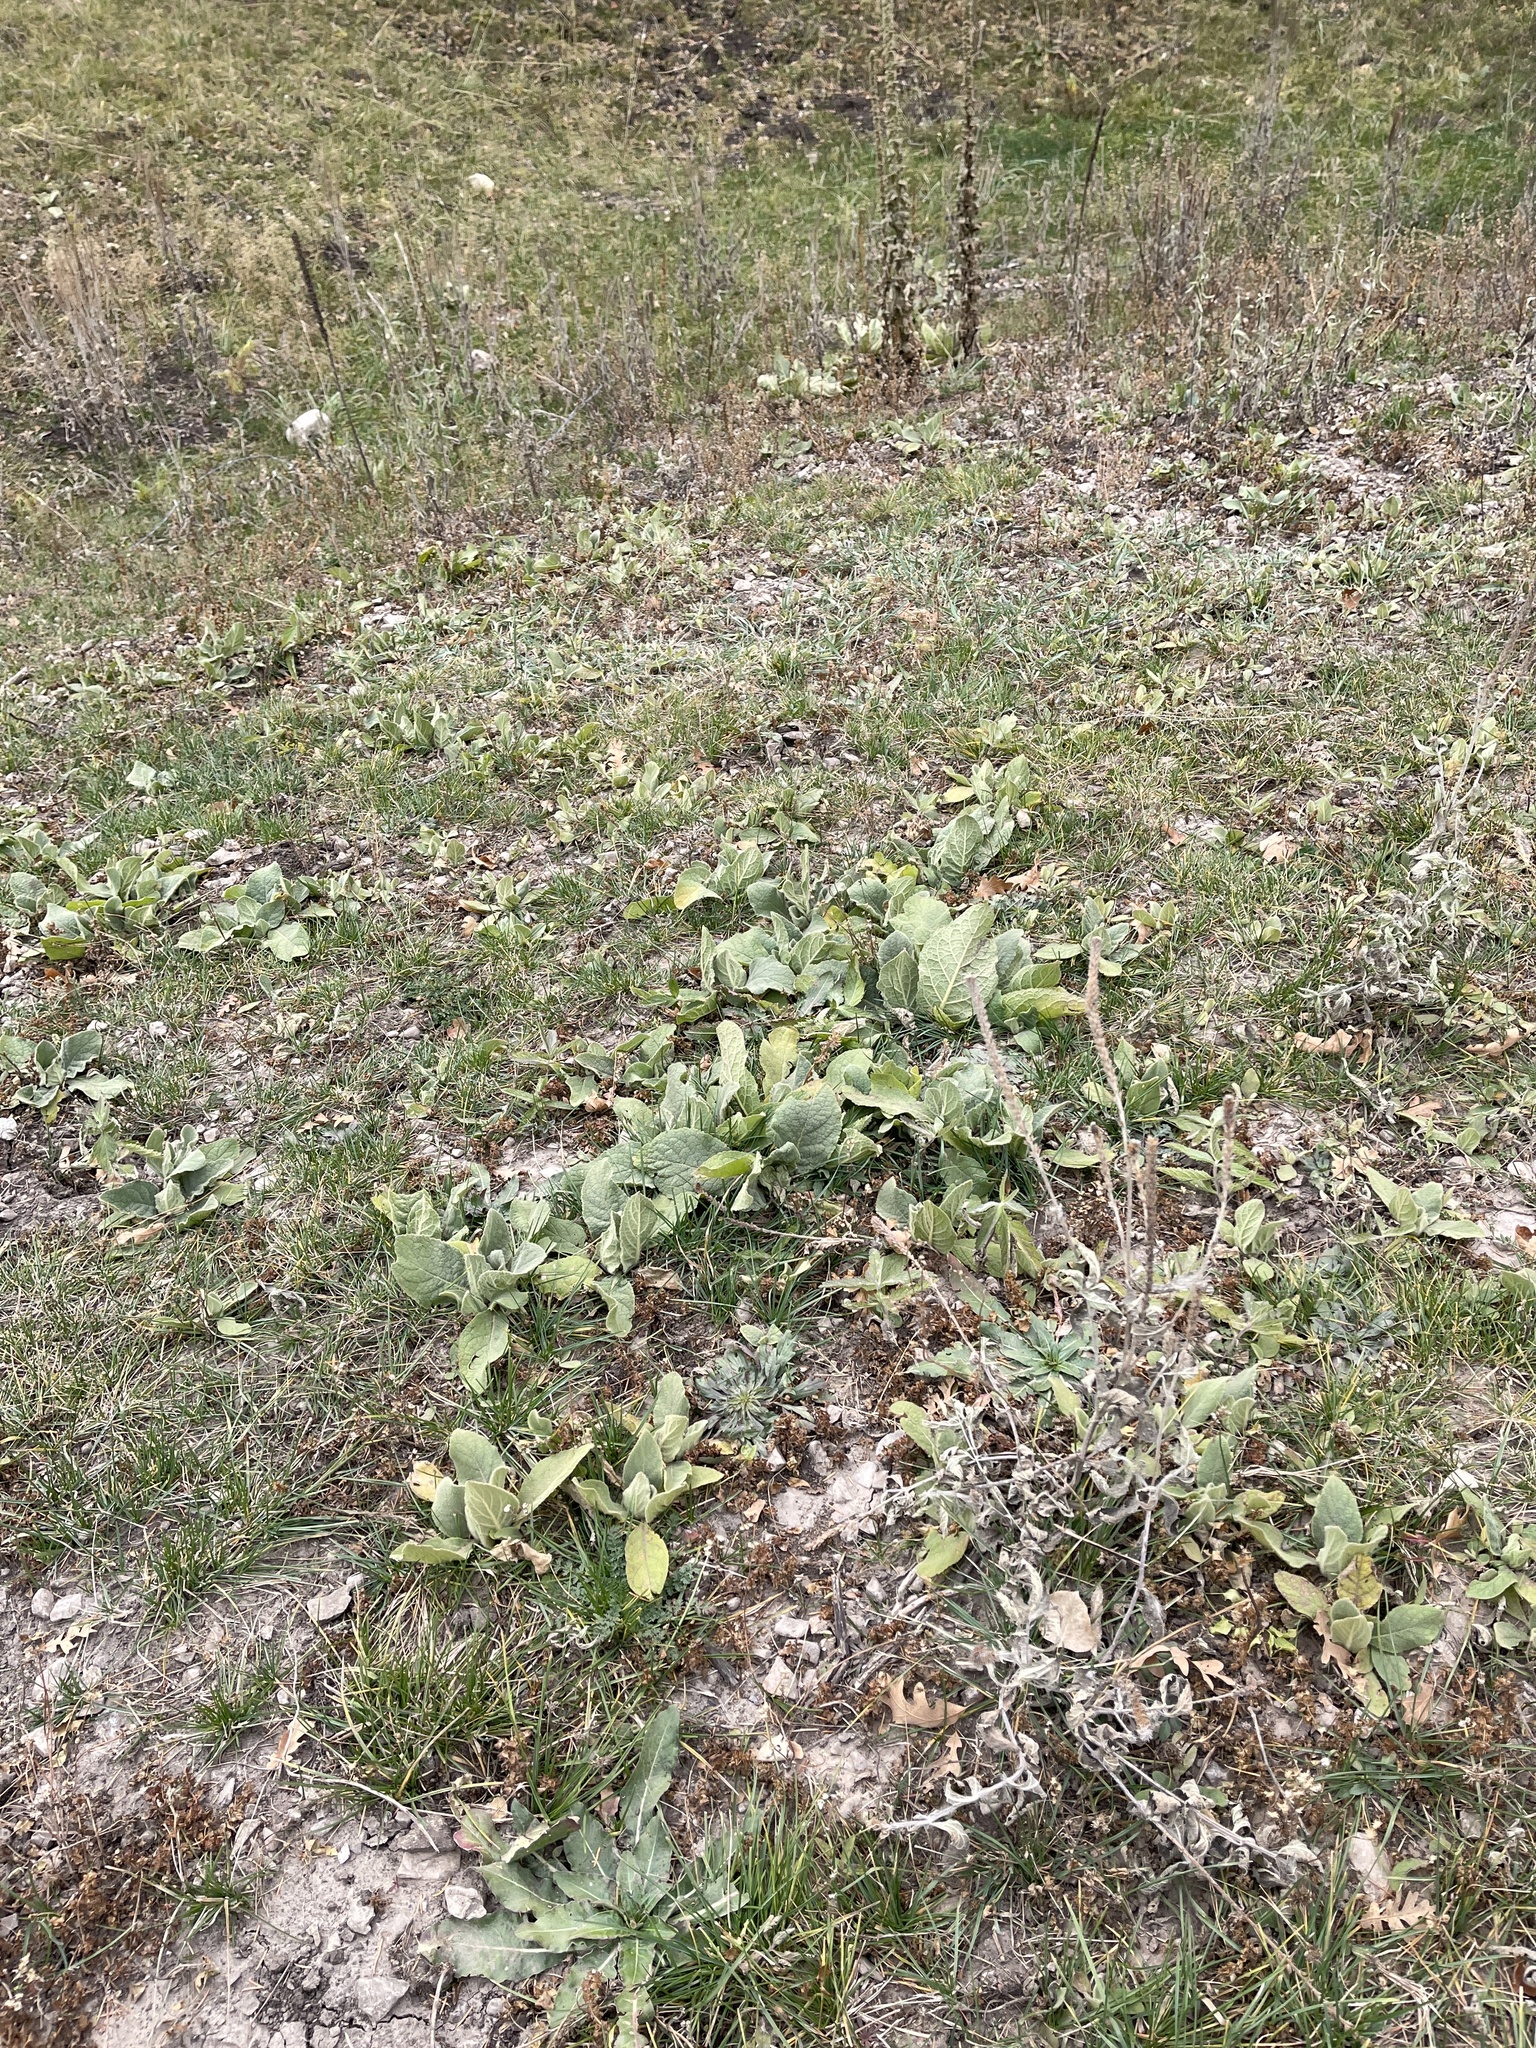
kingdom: Plantae
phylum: Tracheophyta
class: Magnoliopsida
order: Lamiales
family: Scrophulariaceae
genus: Verbascum
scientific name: Verbascum thapsus
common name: Common mullein
